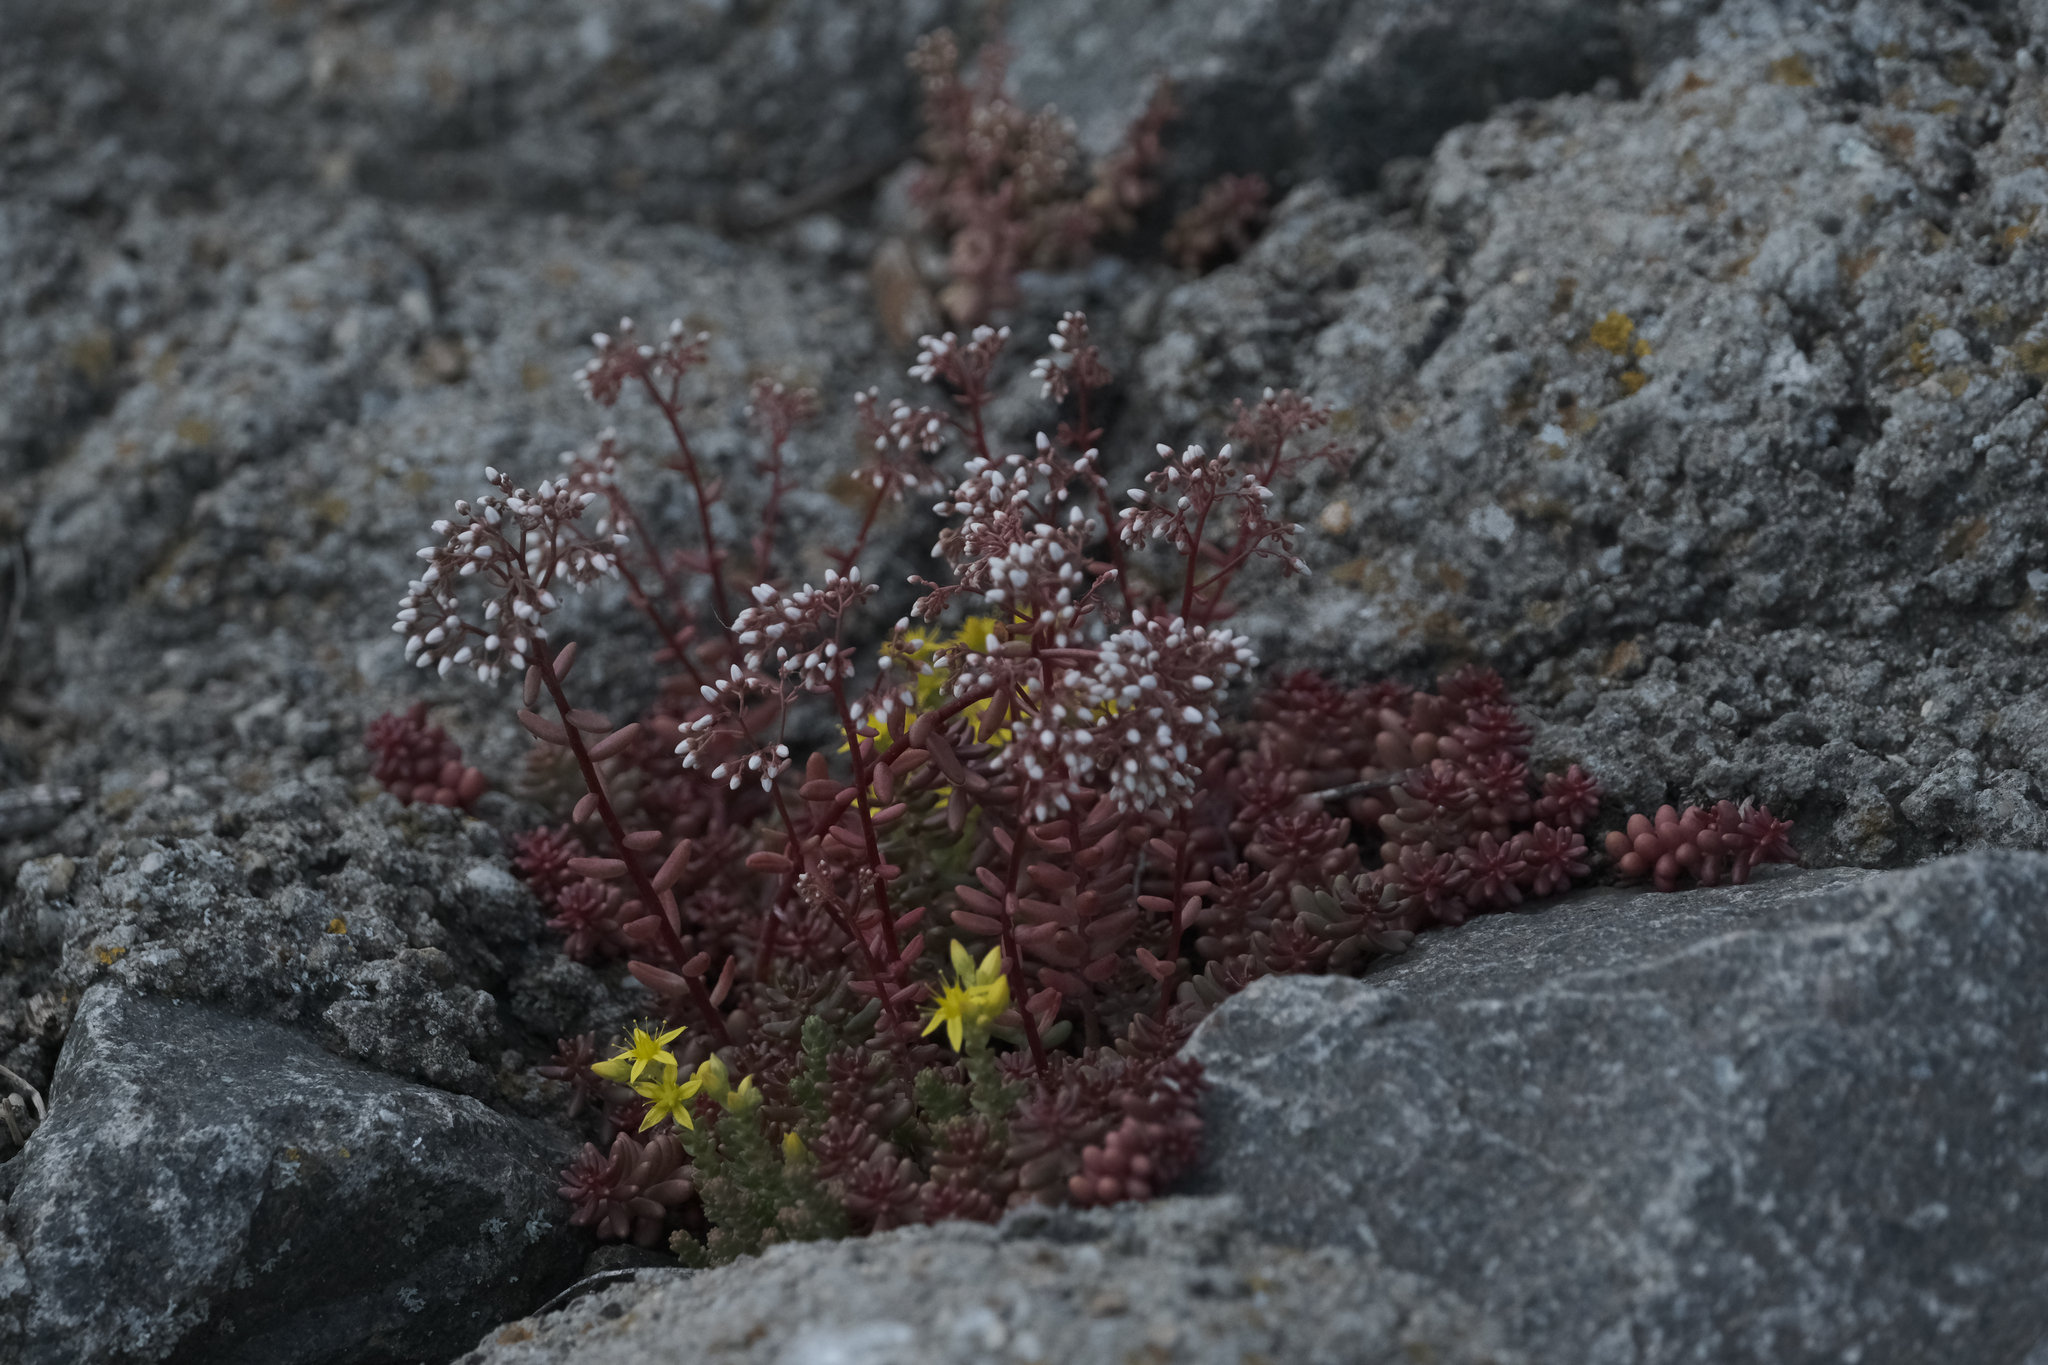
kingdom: Plantae
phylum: Tracheophyta
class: Magnoliopsida
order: Saxifragales
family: Crassulaceae
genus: Sedum
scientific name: Sedum album
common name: White stonecrop
